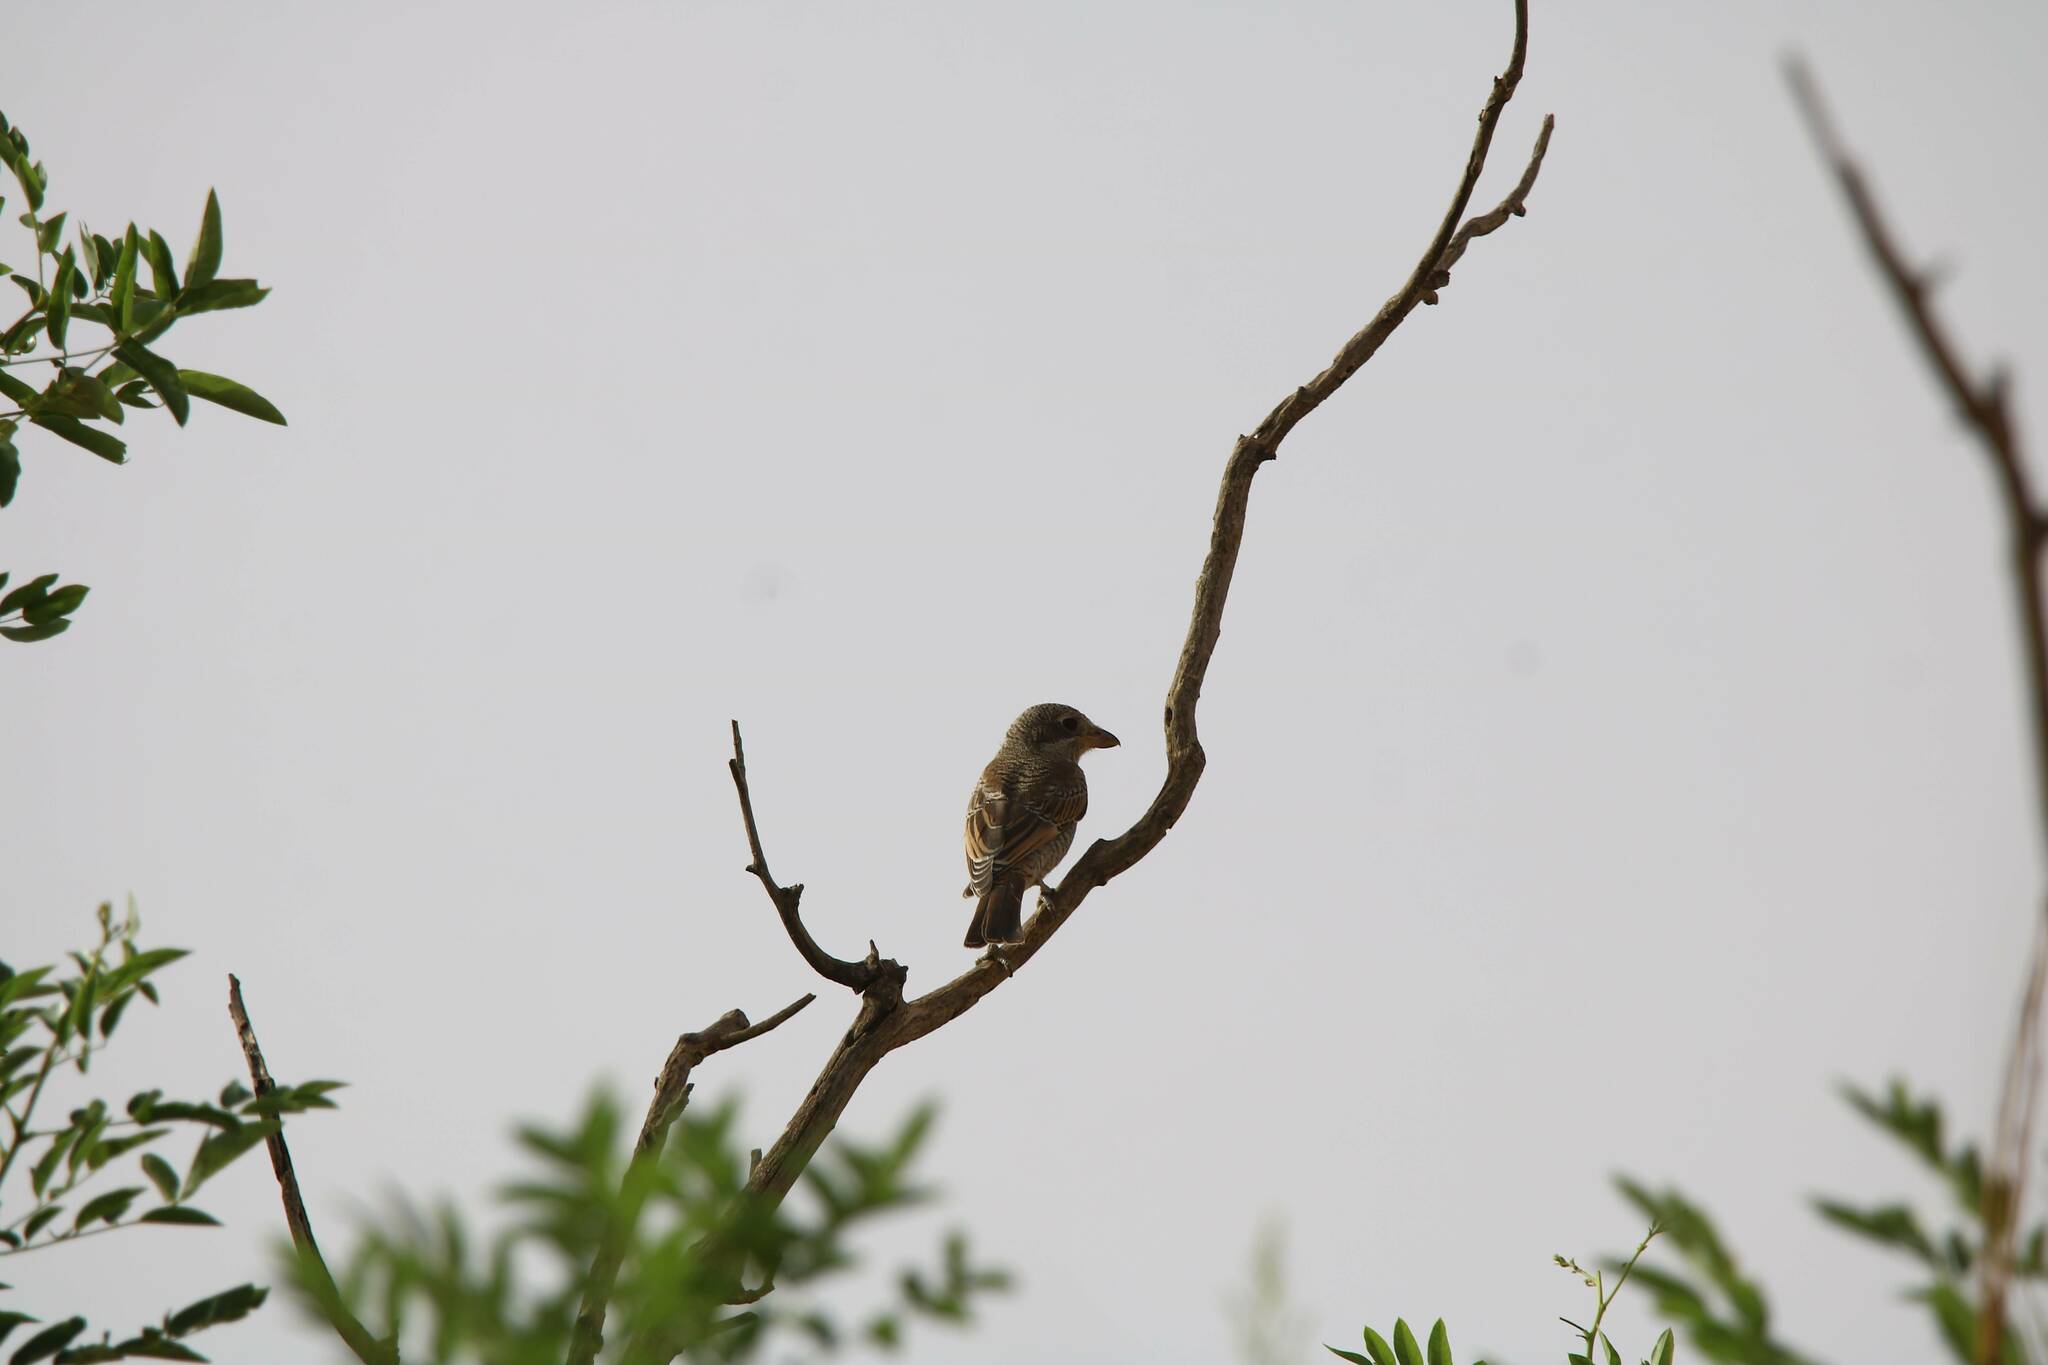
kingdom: Animalia
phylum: Chordata
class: Aves
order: Passeriformes
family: Laniidae
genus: Lanius
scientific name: Lanius excubitor
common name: Great grey shrike
